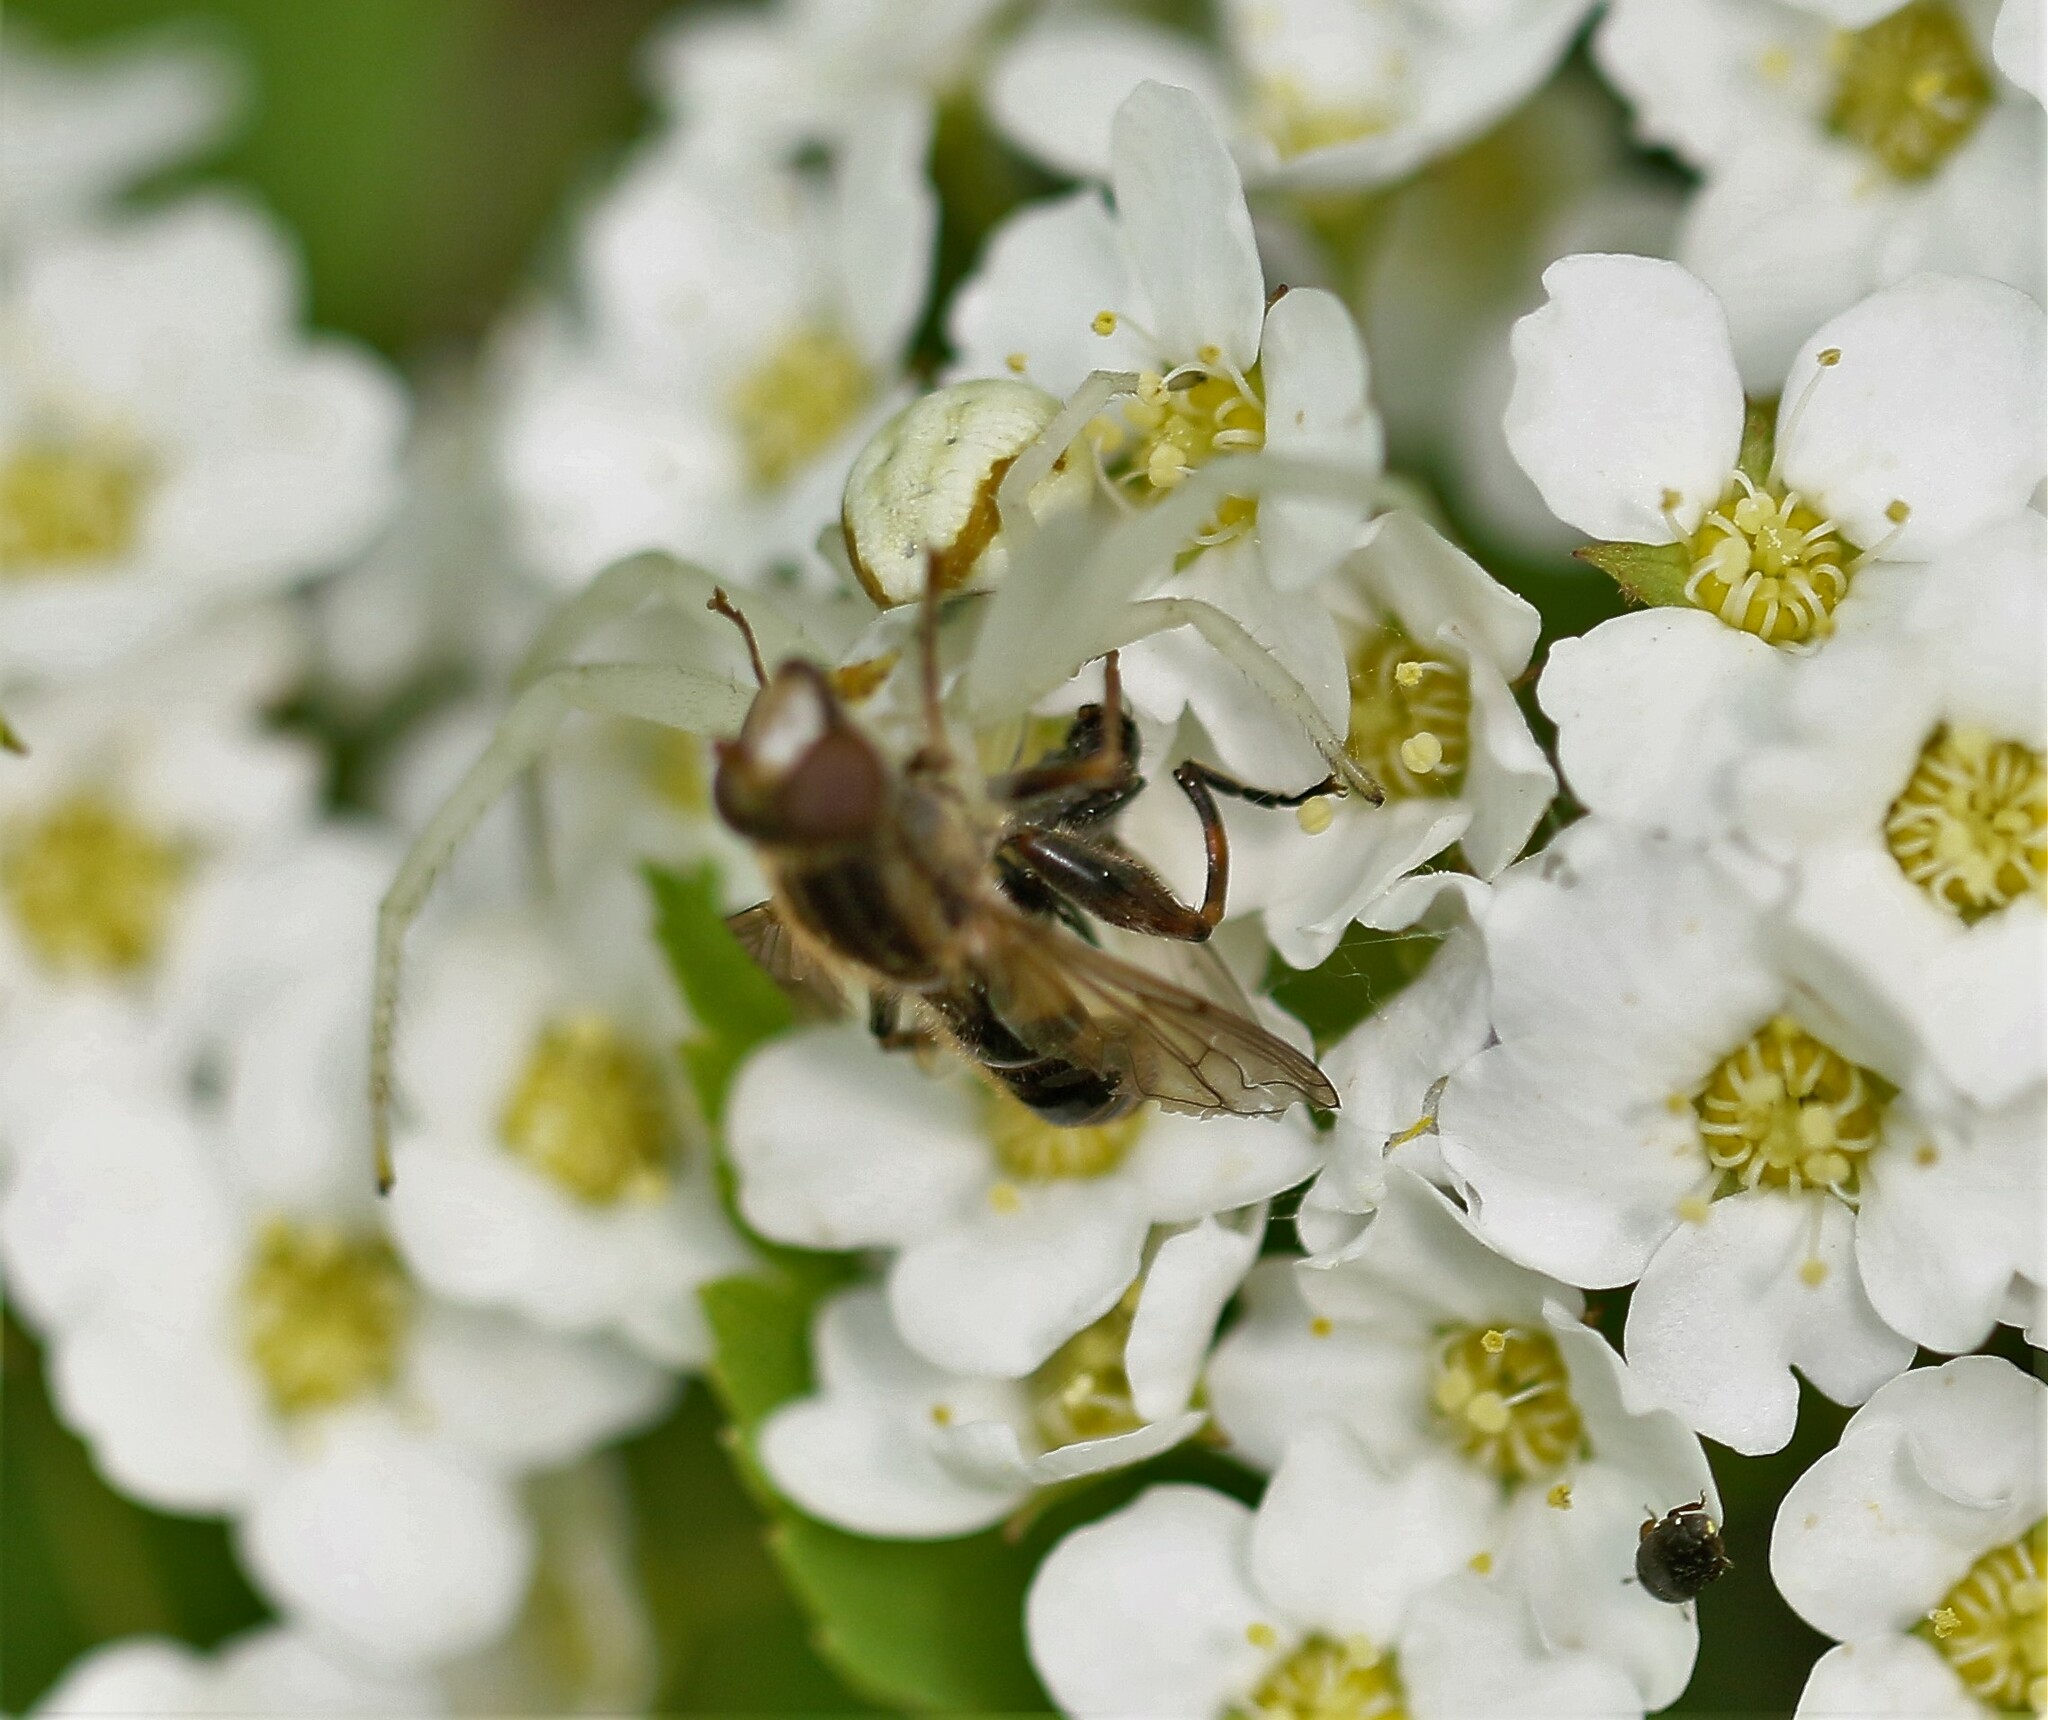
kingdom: Animalia
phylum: Arthropoda
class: Arachnida
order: Araneae
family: Thomisidae
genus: Misumena
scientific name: Misumena vatia
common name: Goldenrod crab spider
